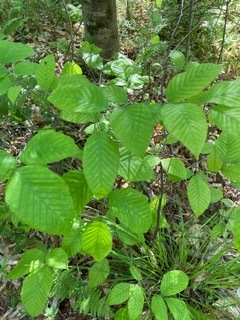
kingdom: Plantae
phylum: Tracheophyta
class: Magnoliopsida
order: Fagales
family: Fagaceae
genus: Fagus
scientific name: Fagus grandifolia
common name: American beech
